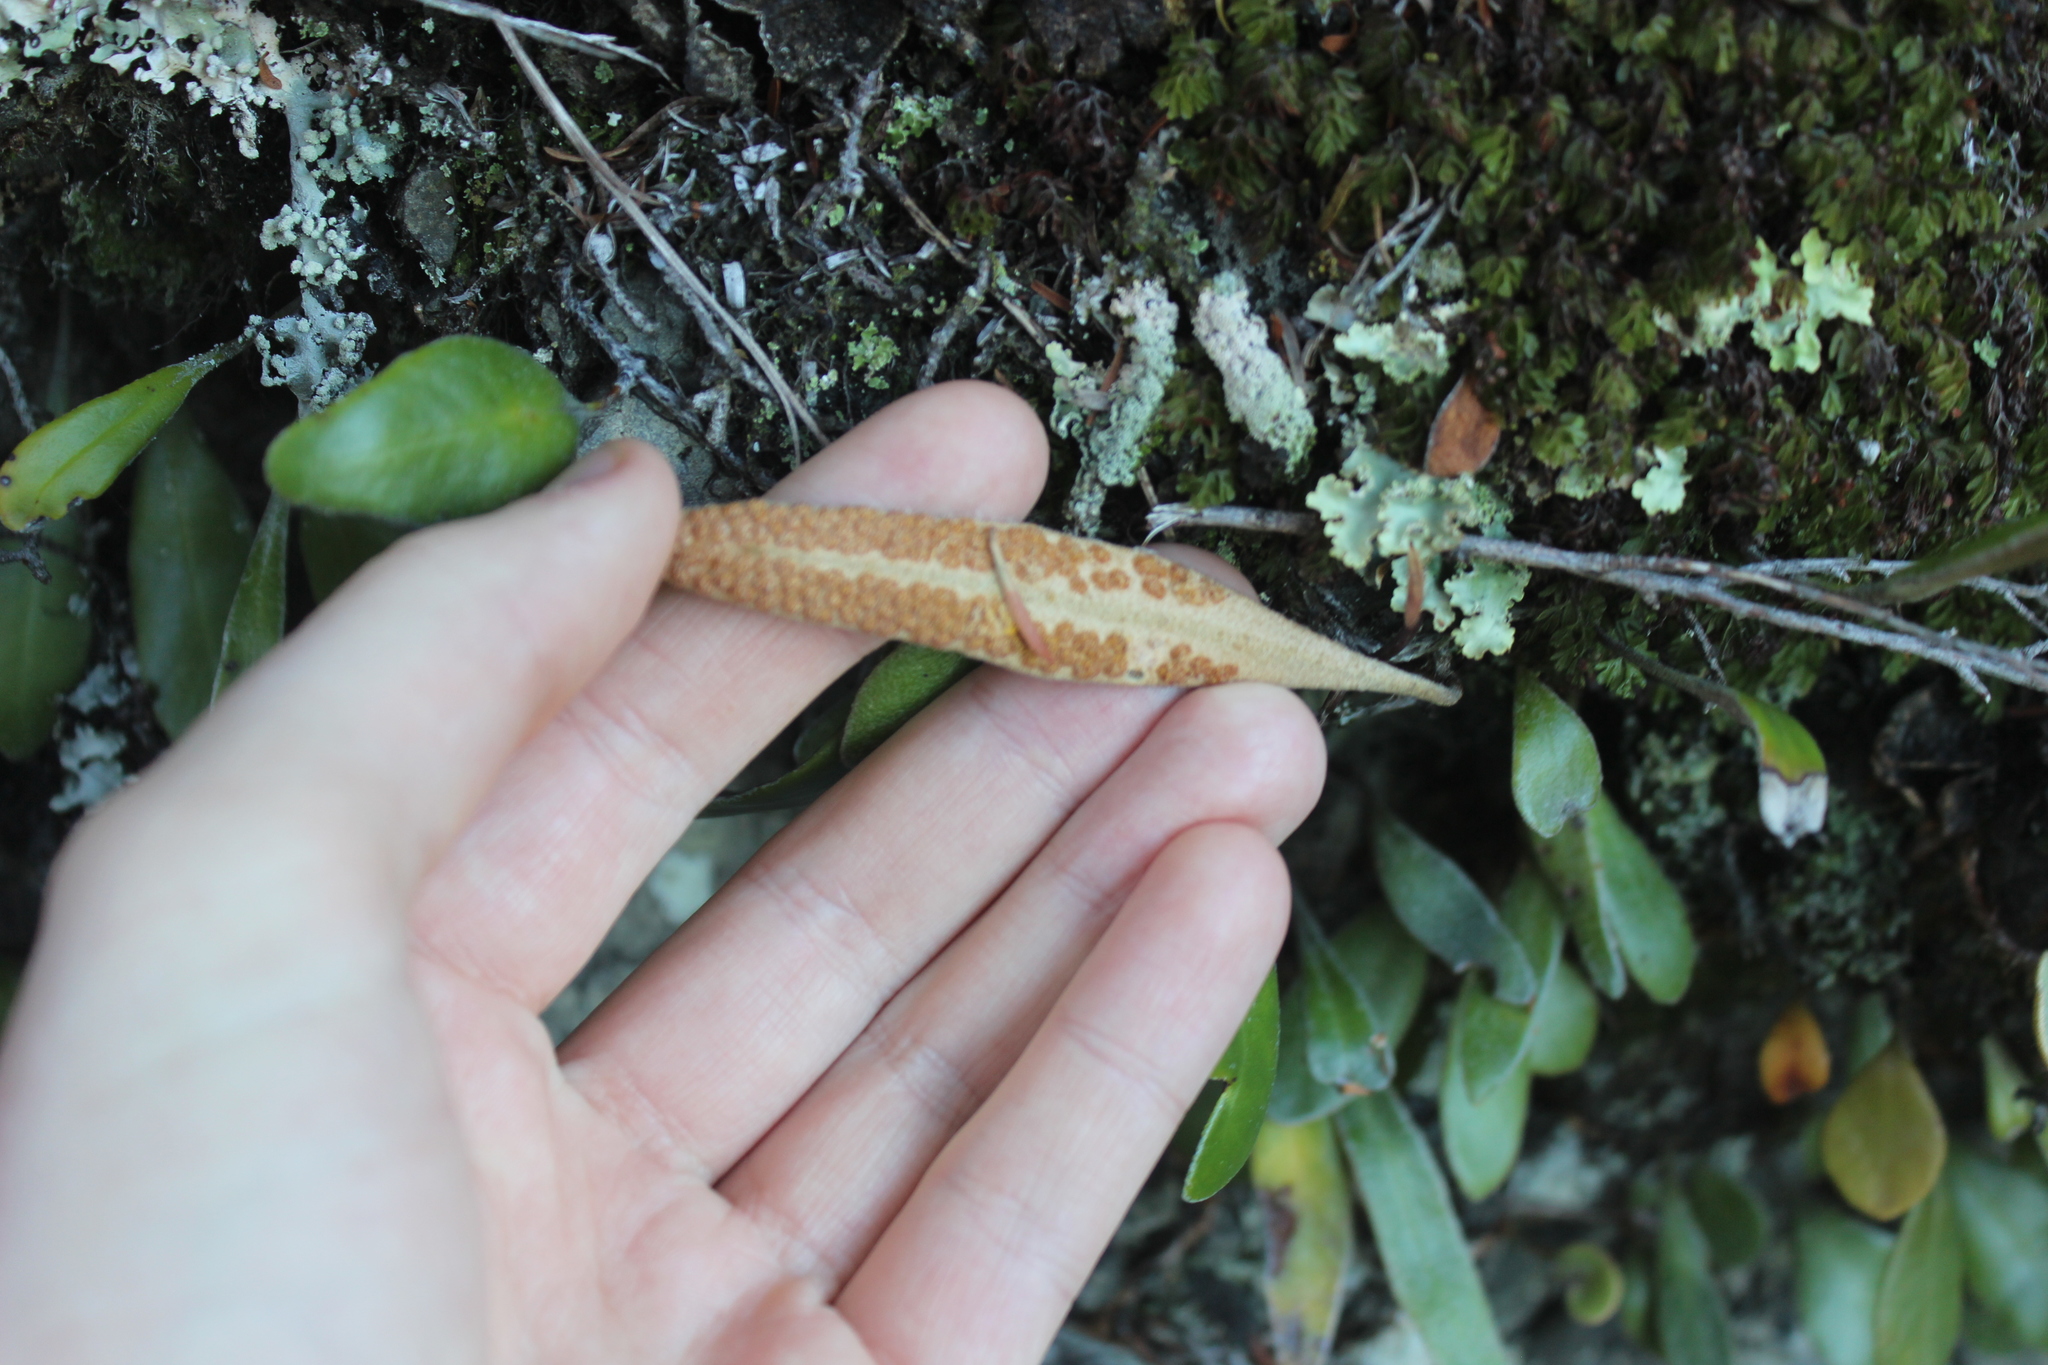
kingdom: Plantae
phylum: Tracheophyta
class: Polypodiopsida
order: Polypodiales
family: Polypodiaceae
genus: Pyrrosia
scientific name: Pyrrosia eleagnifolia
